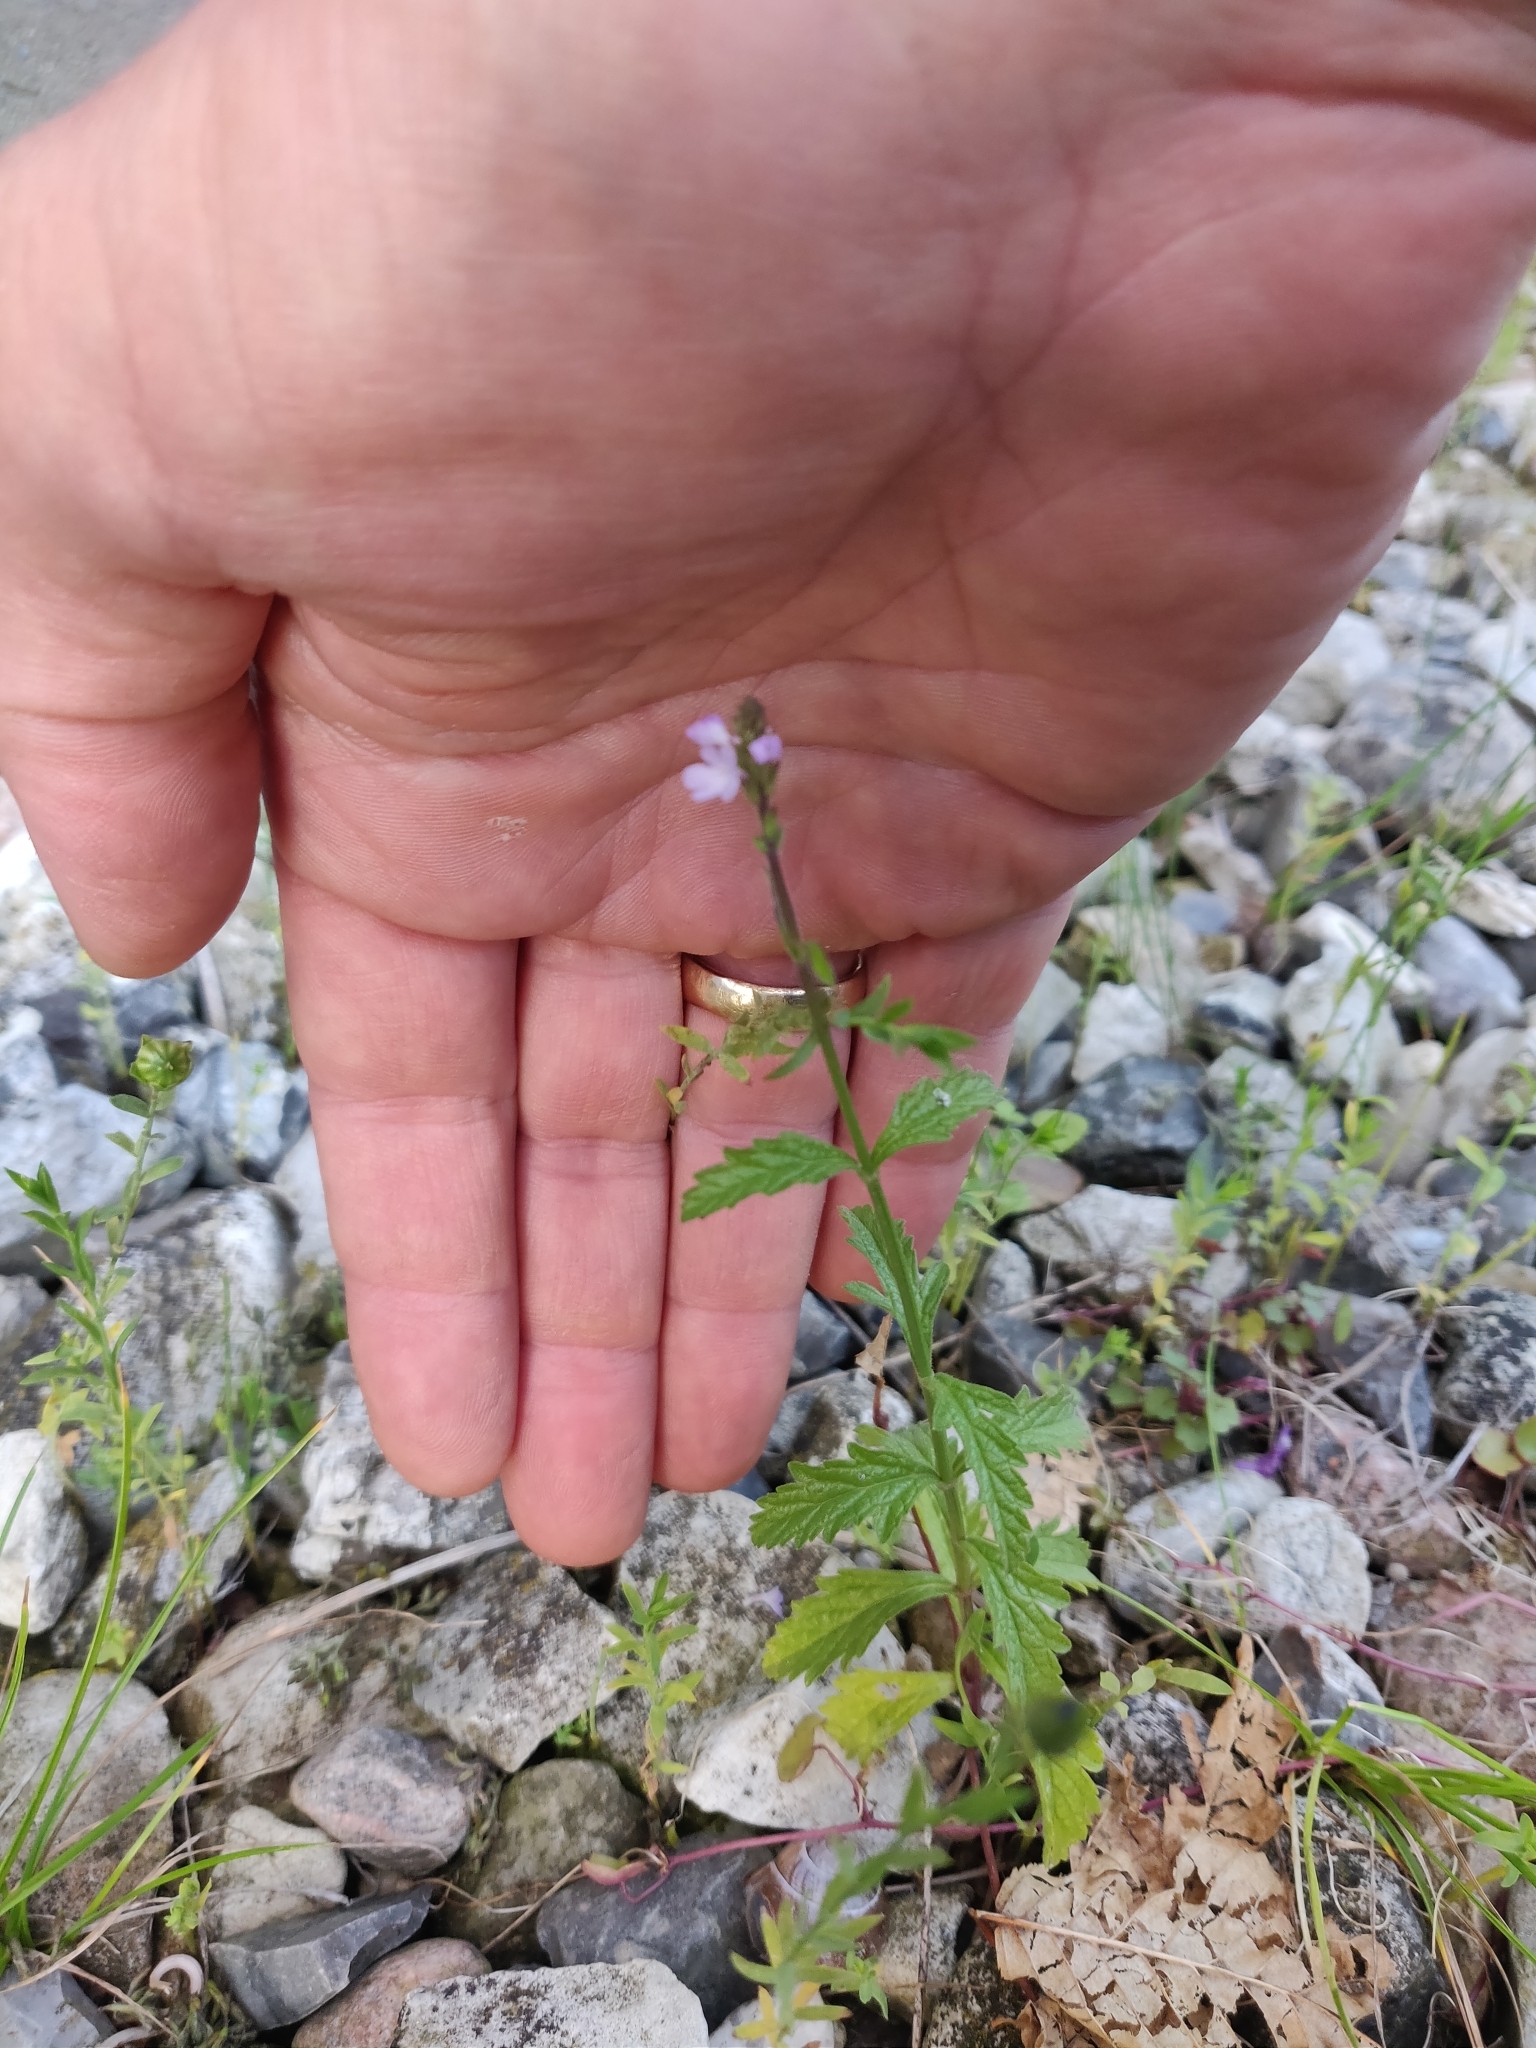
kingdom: Plantae
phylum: Tracheophyta
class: Magnoliopsida
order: Lamiales
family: Verbenaceae
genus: Verbena
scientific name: Verbena officinalis
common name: Vervain
